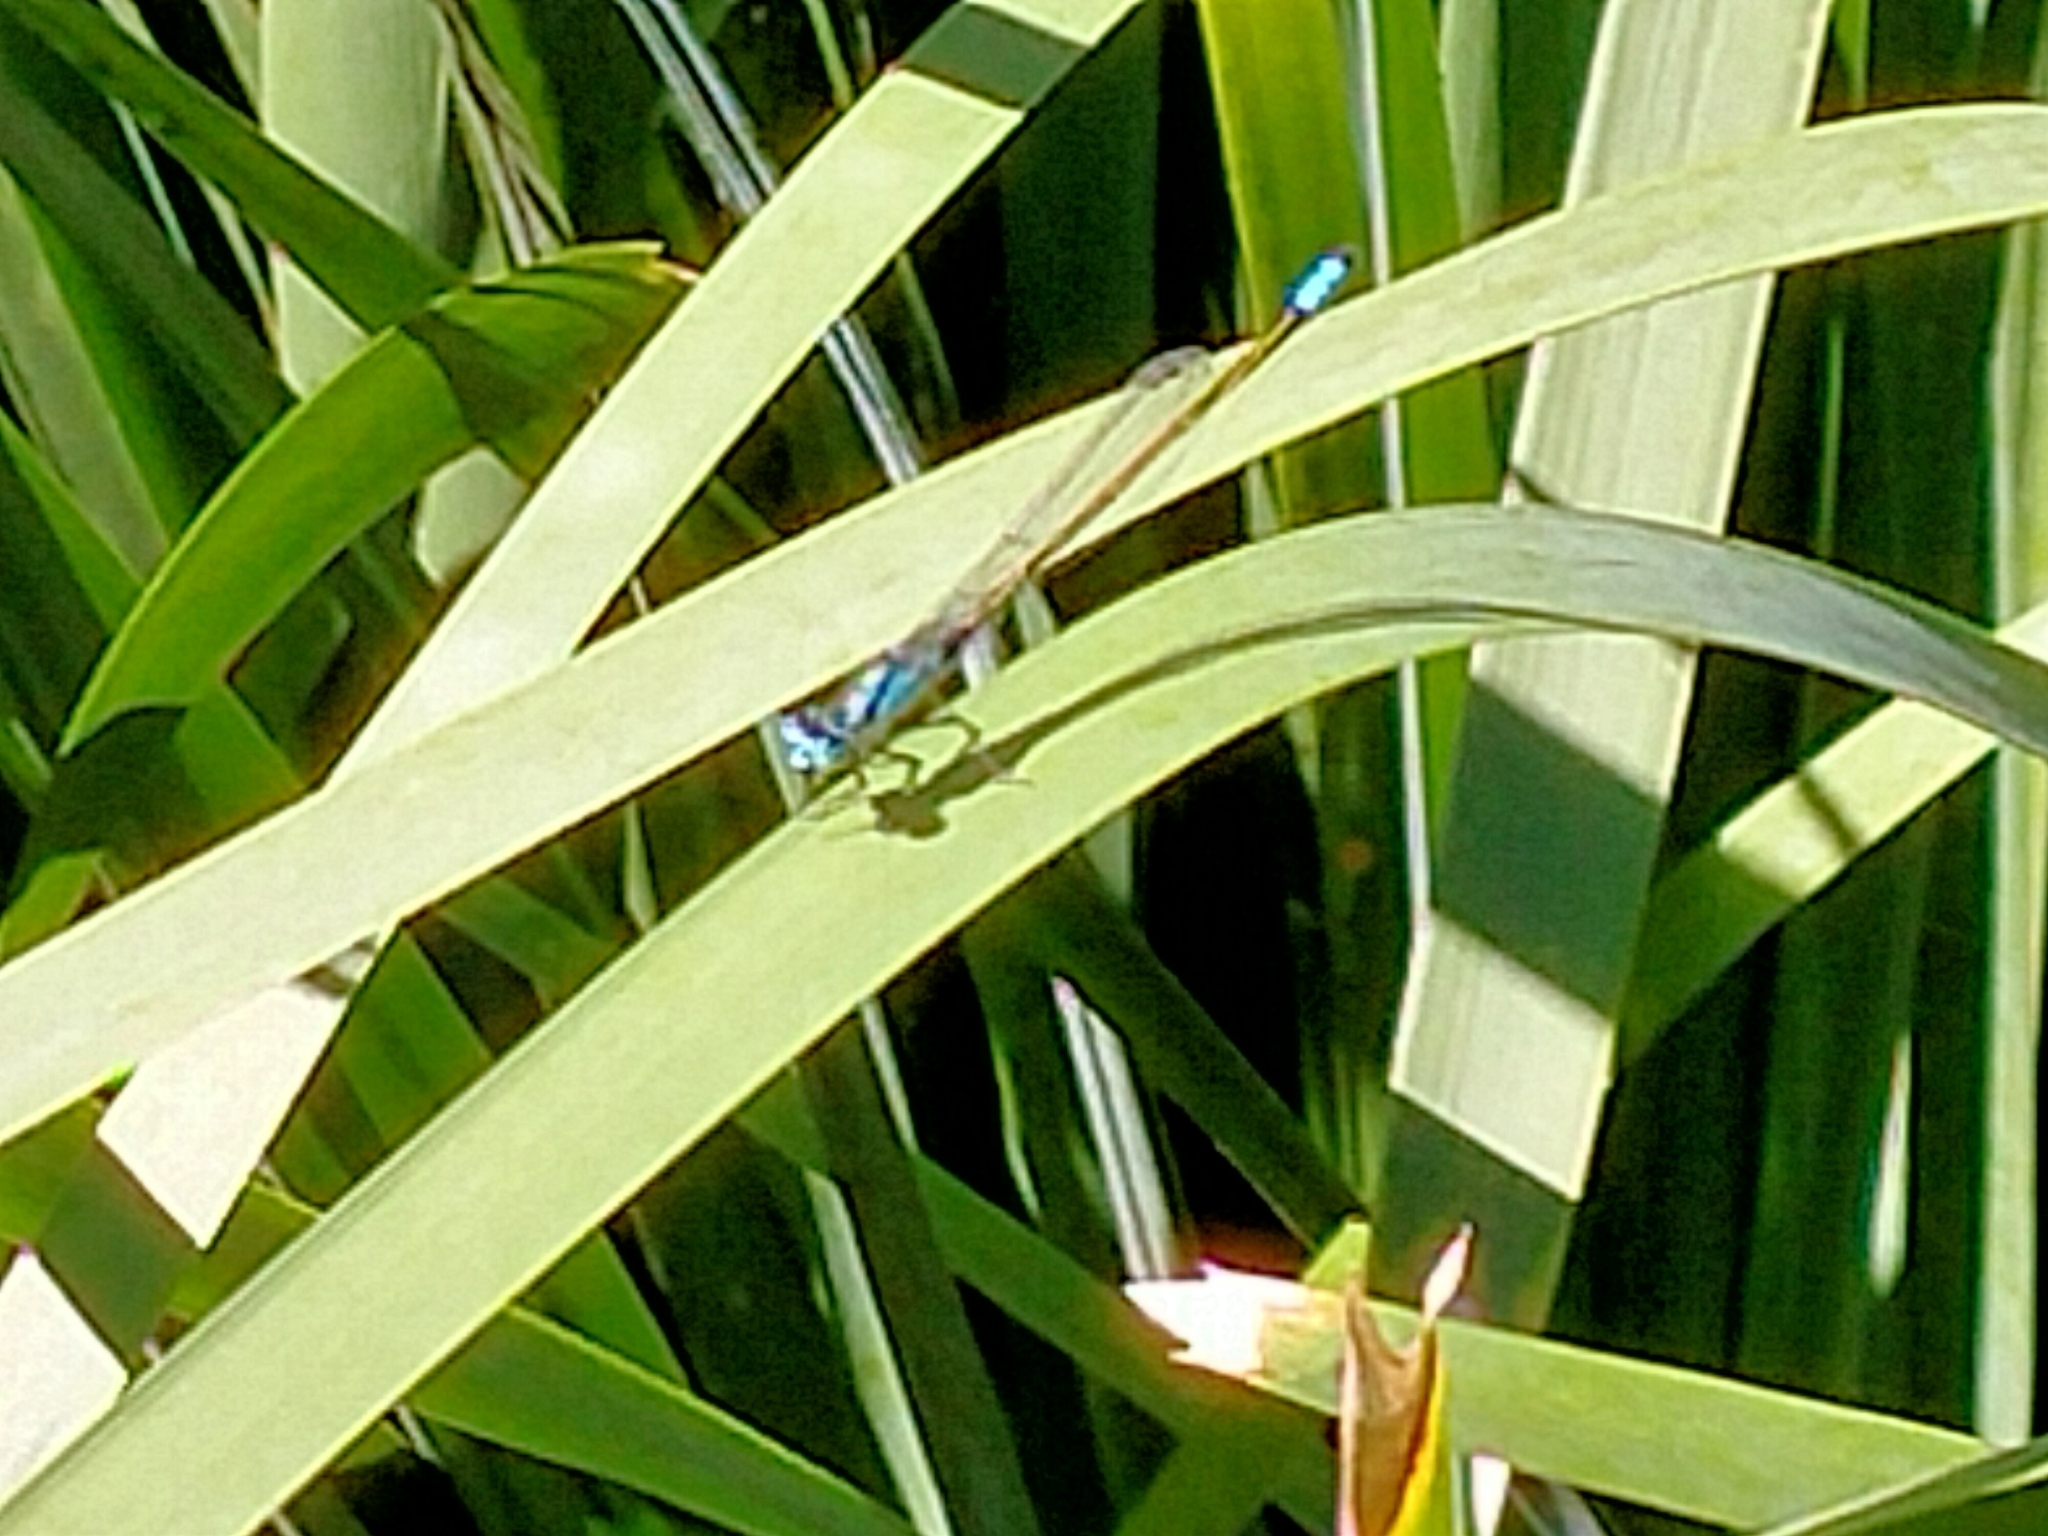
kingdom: Animalia
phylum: Arthropoda
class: Insecta
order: Odonata
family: Coenagrionidae
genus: Ischnura
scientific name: Ischnura heterosticta
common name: Common bluetail
